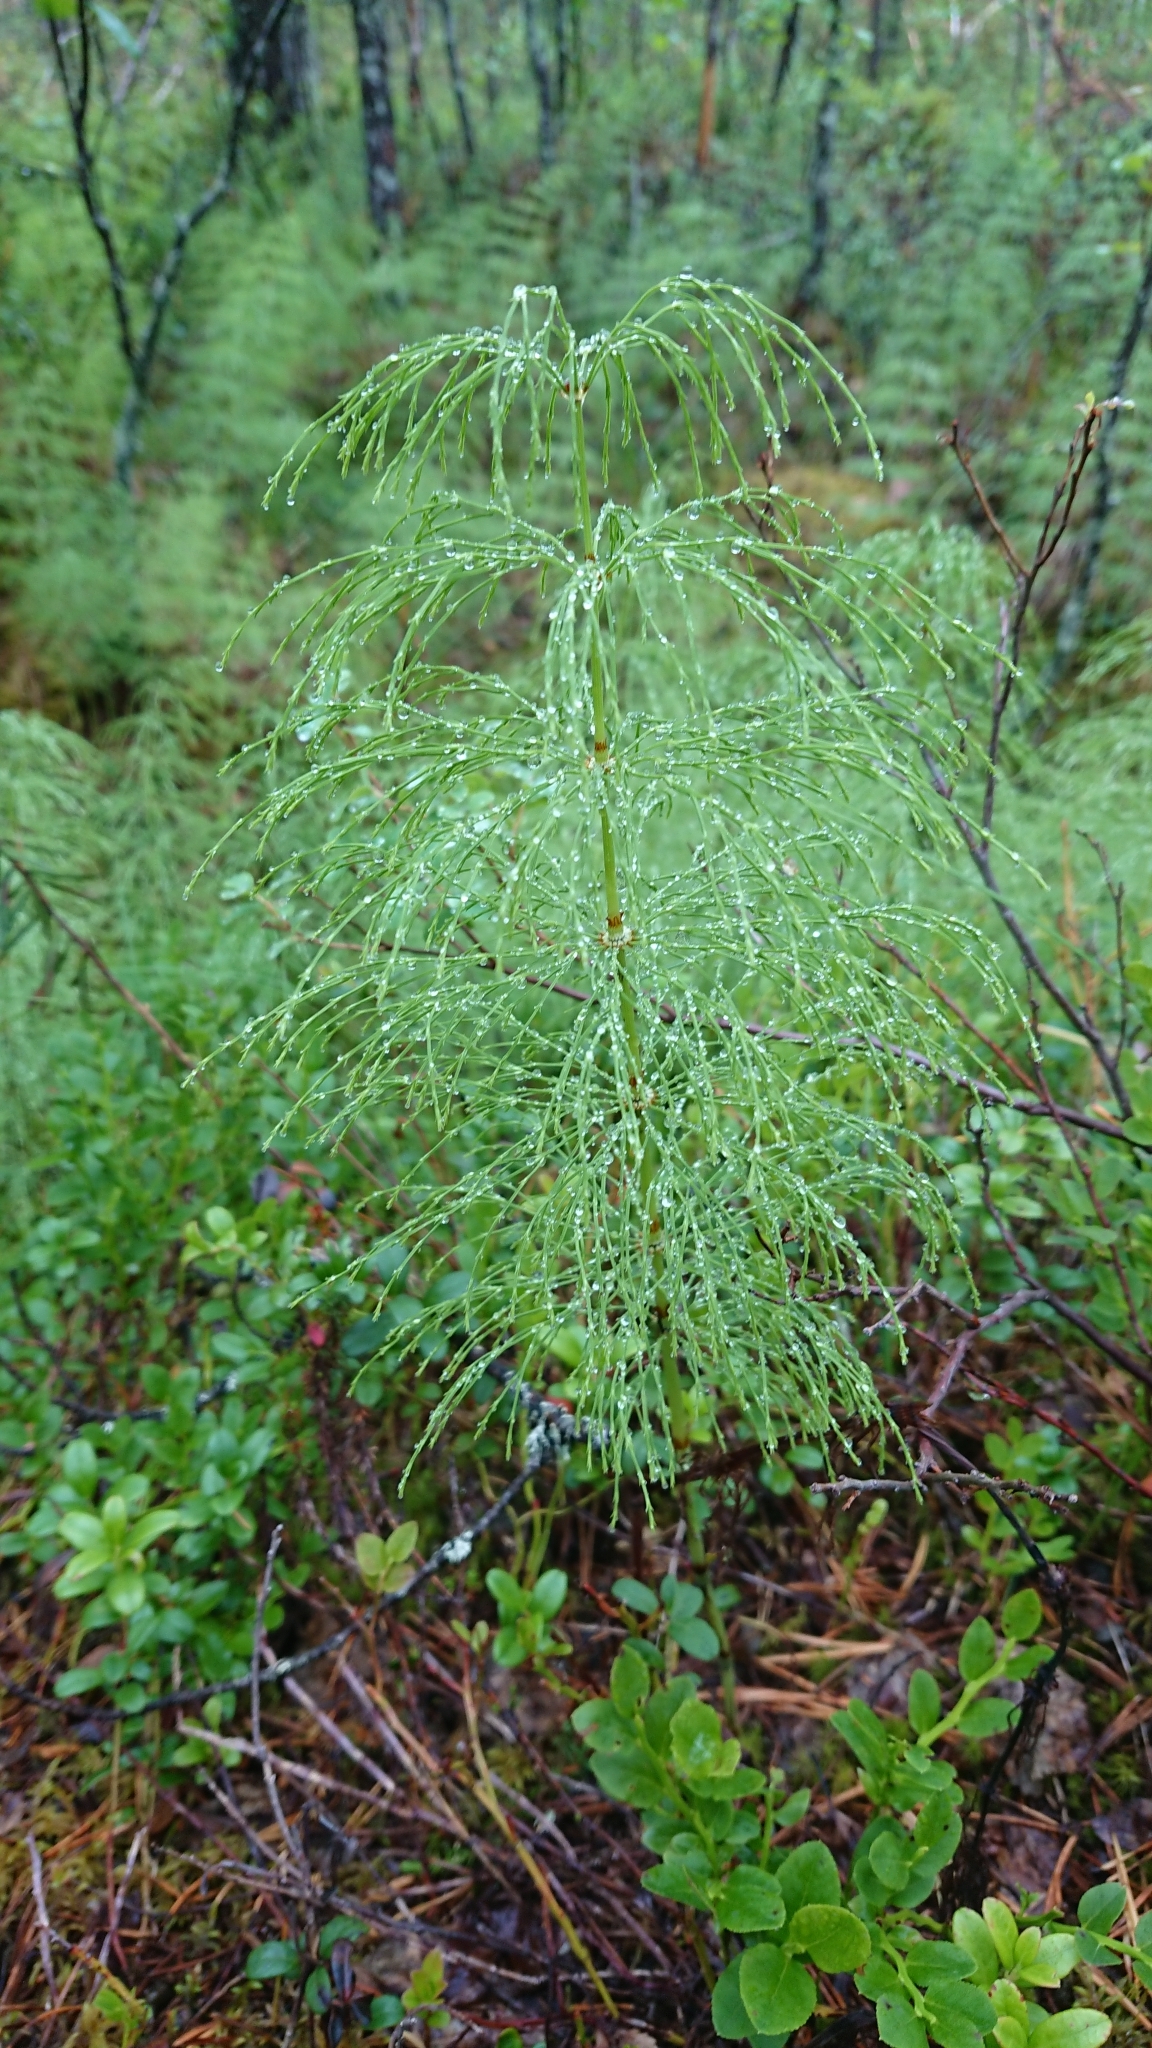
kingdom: Plantae
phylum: Tracheophyta
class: Polypodiopsida
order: Equisetales
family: Equisetaceae
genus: Equisetum
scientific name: Equisetum sylvaticum
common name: Wood horsetail
